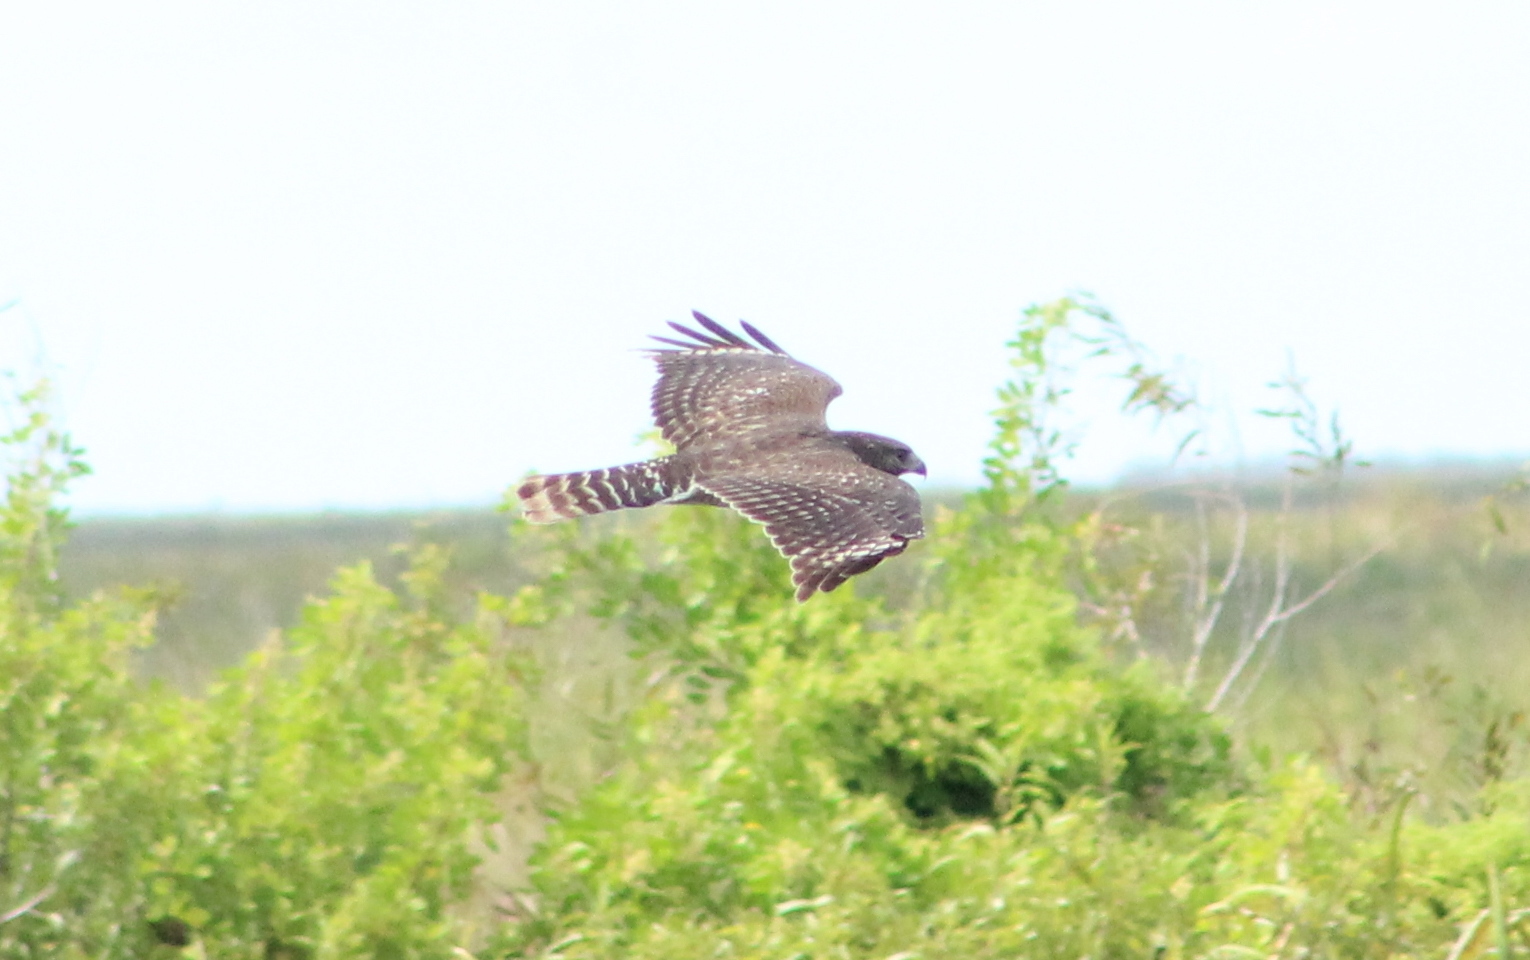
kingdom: Animalia
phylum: Chordata
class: Aves
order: Accipitriformes
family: Accipitridae
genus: Buteo
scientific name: Buteo lineatus
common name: Red-shouldered hawk
